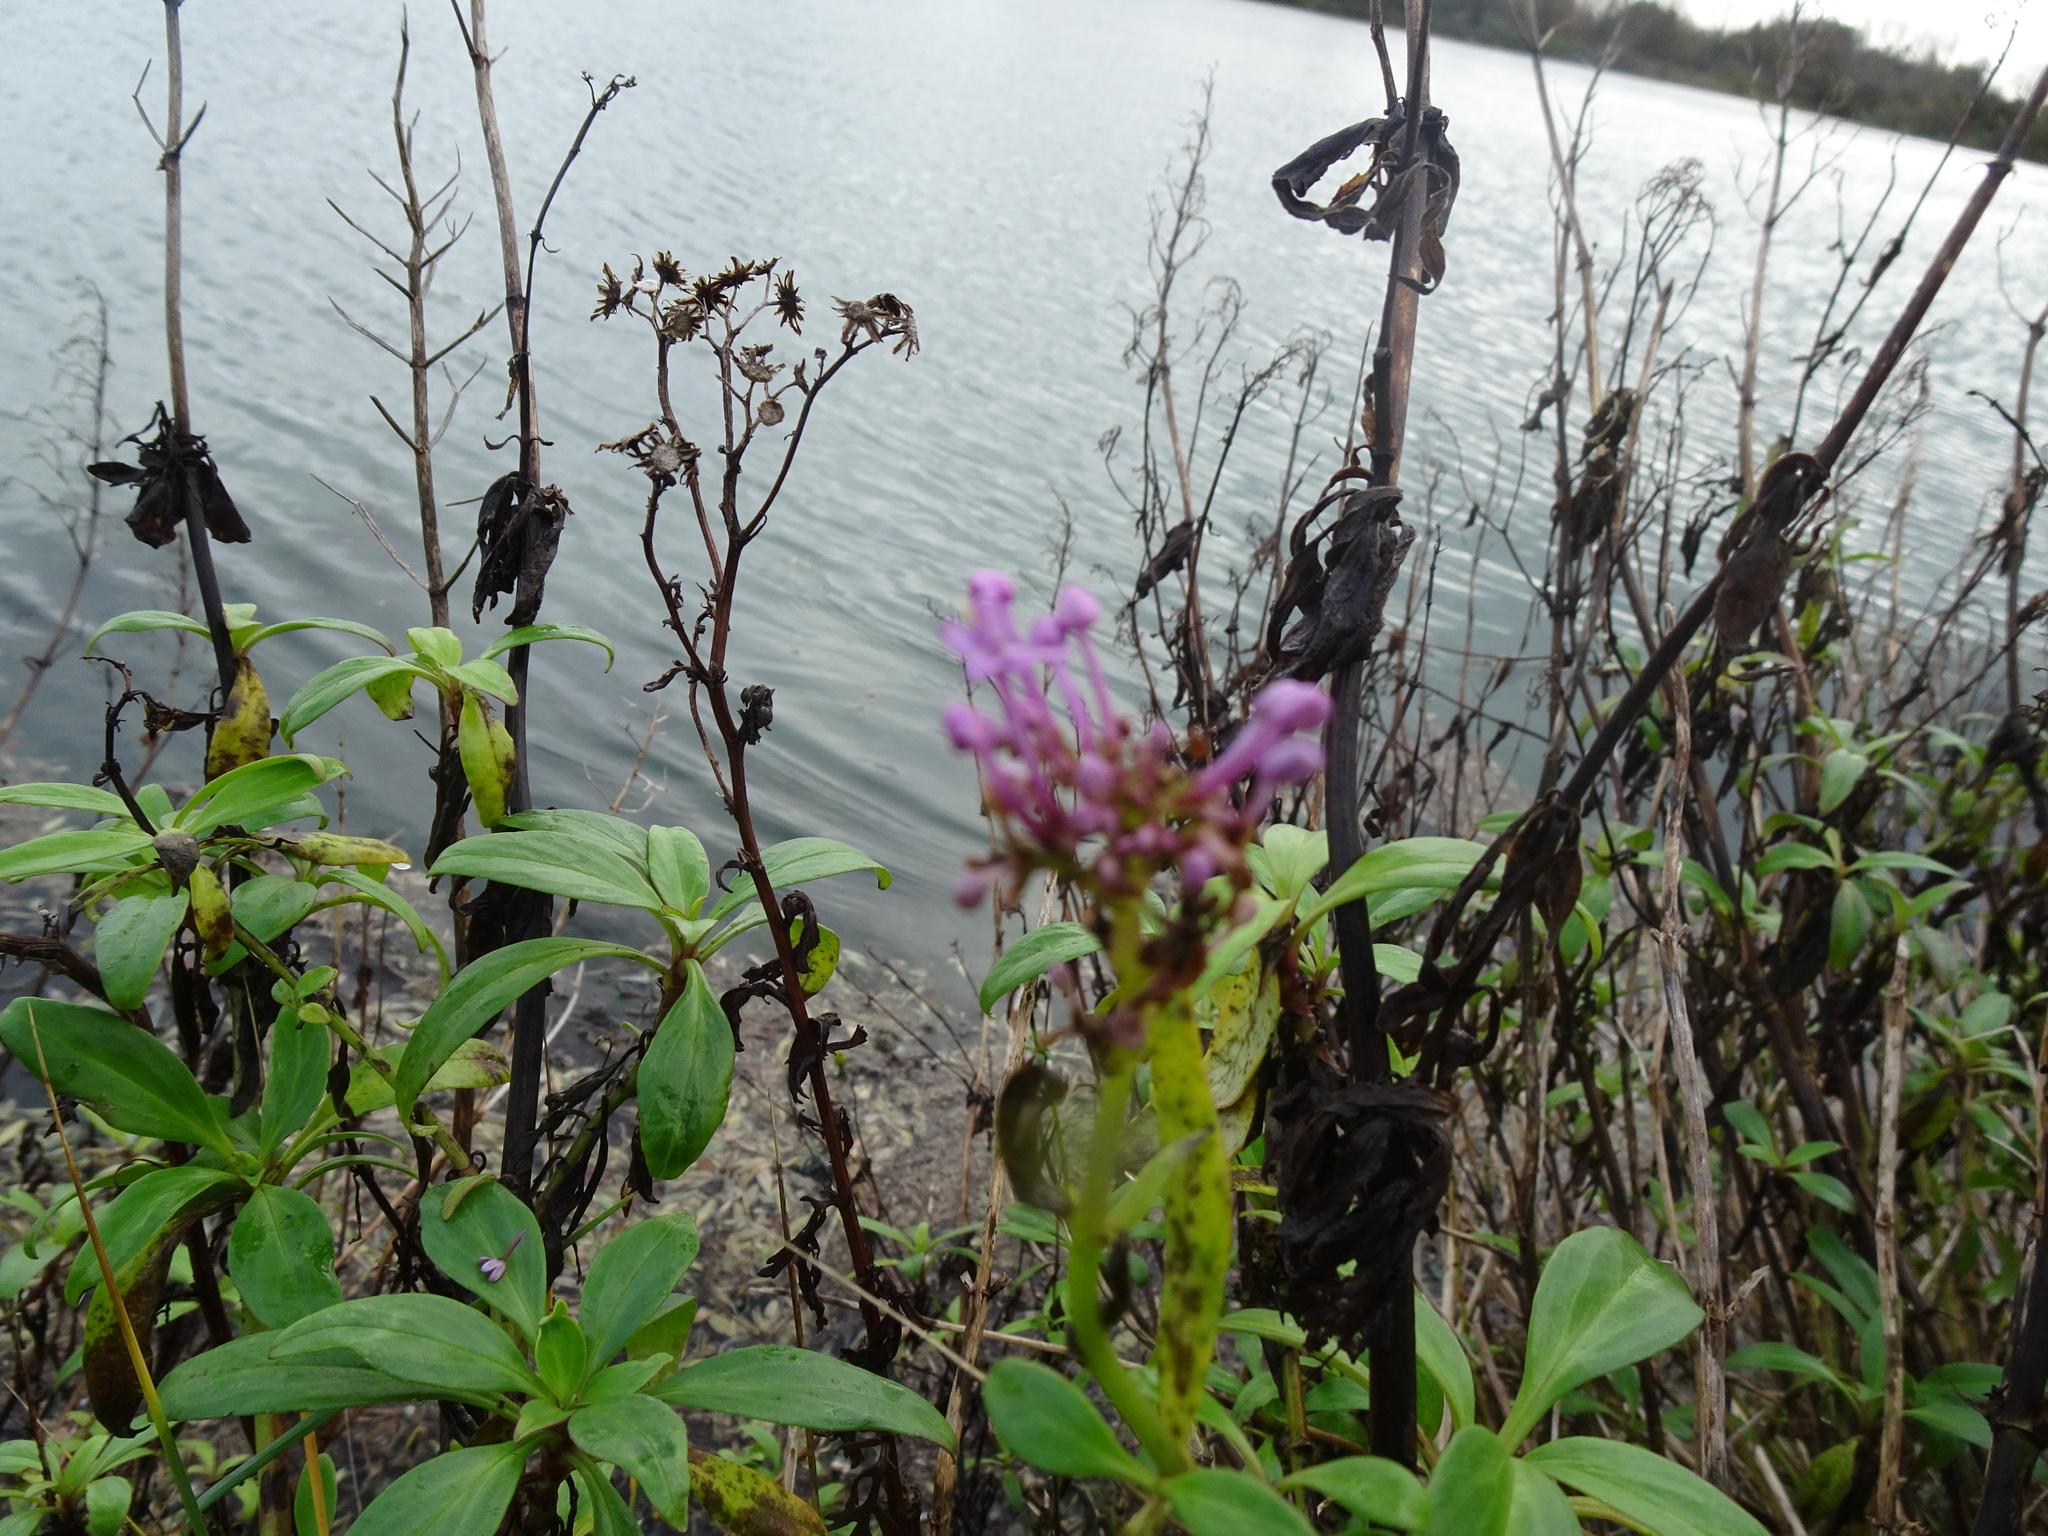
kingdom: Plantae
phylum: Tracheophyta
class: Magnoliopsida
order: Dipsacales
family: Caprifoliaceae
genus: Centranthus
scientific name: Centranthus ruber
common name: Red valerian
